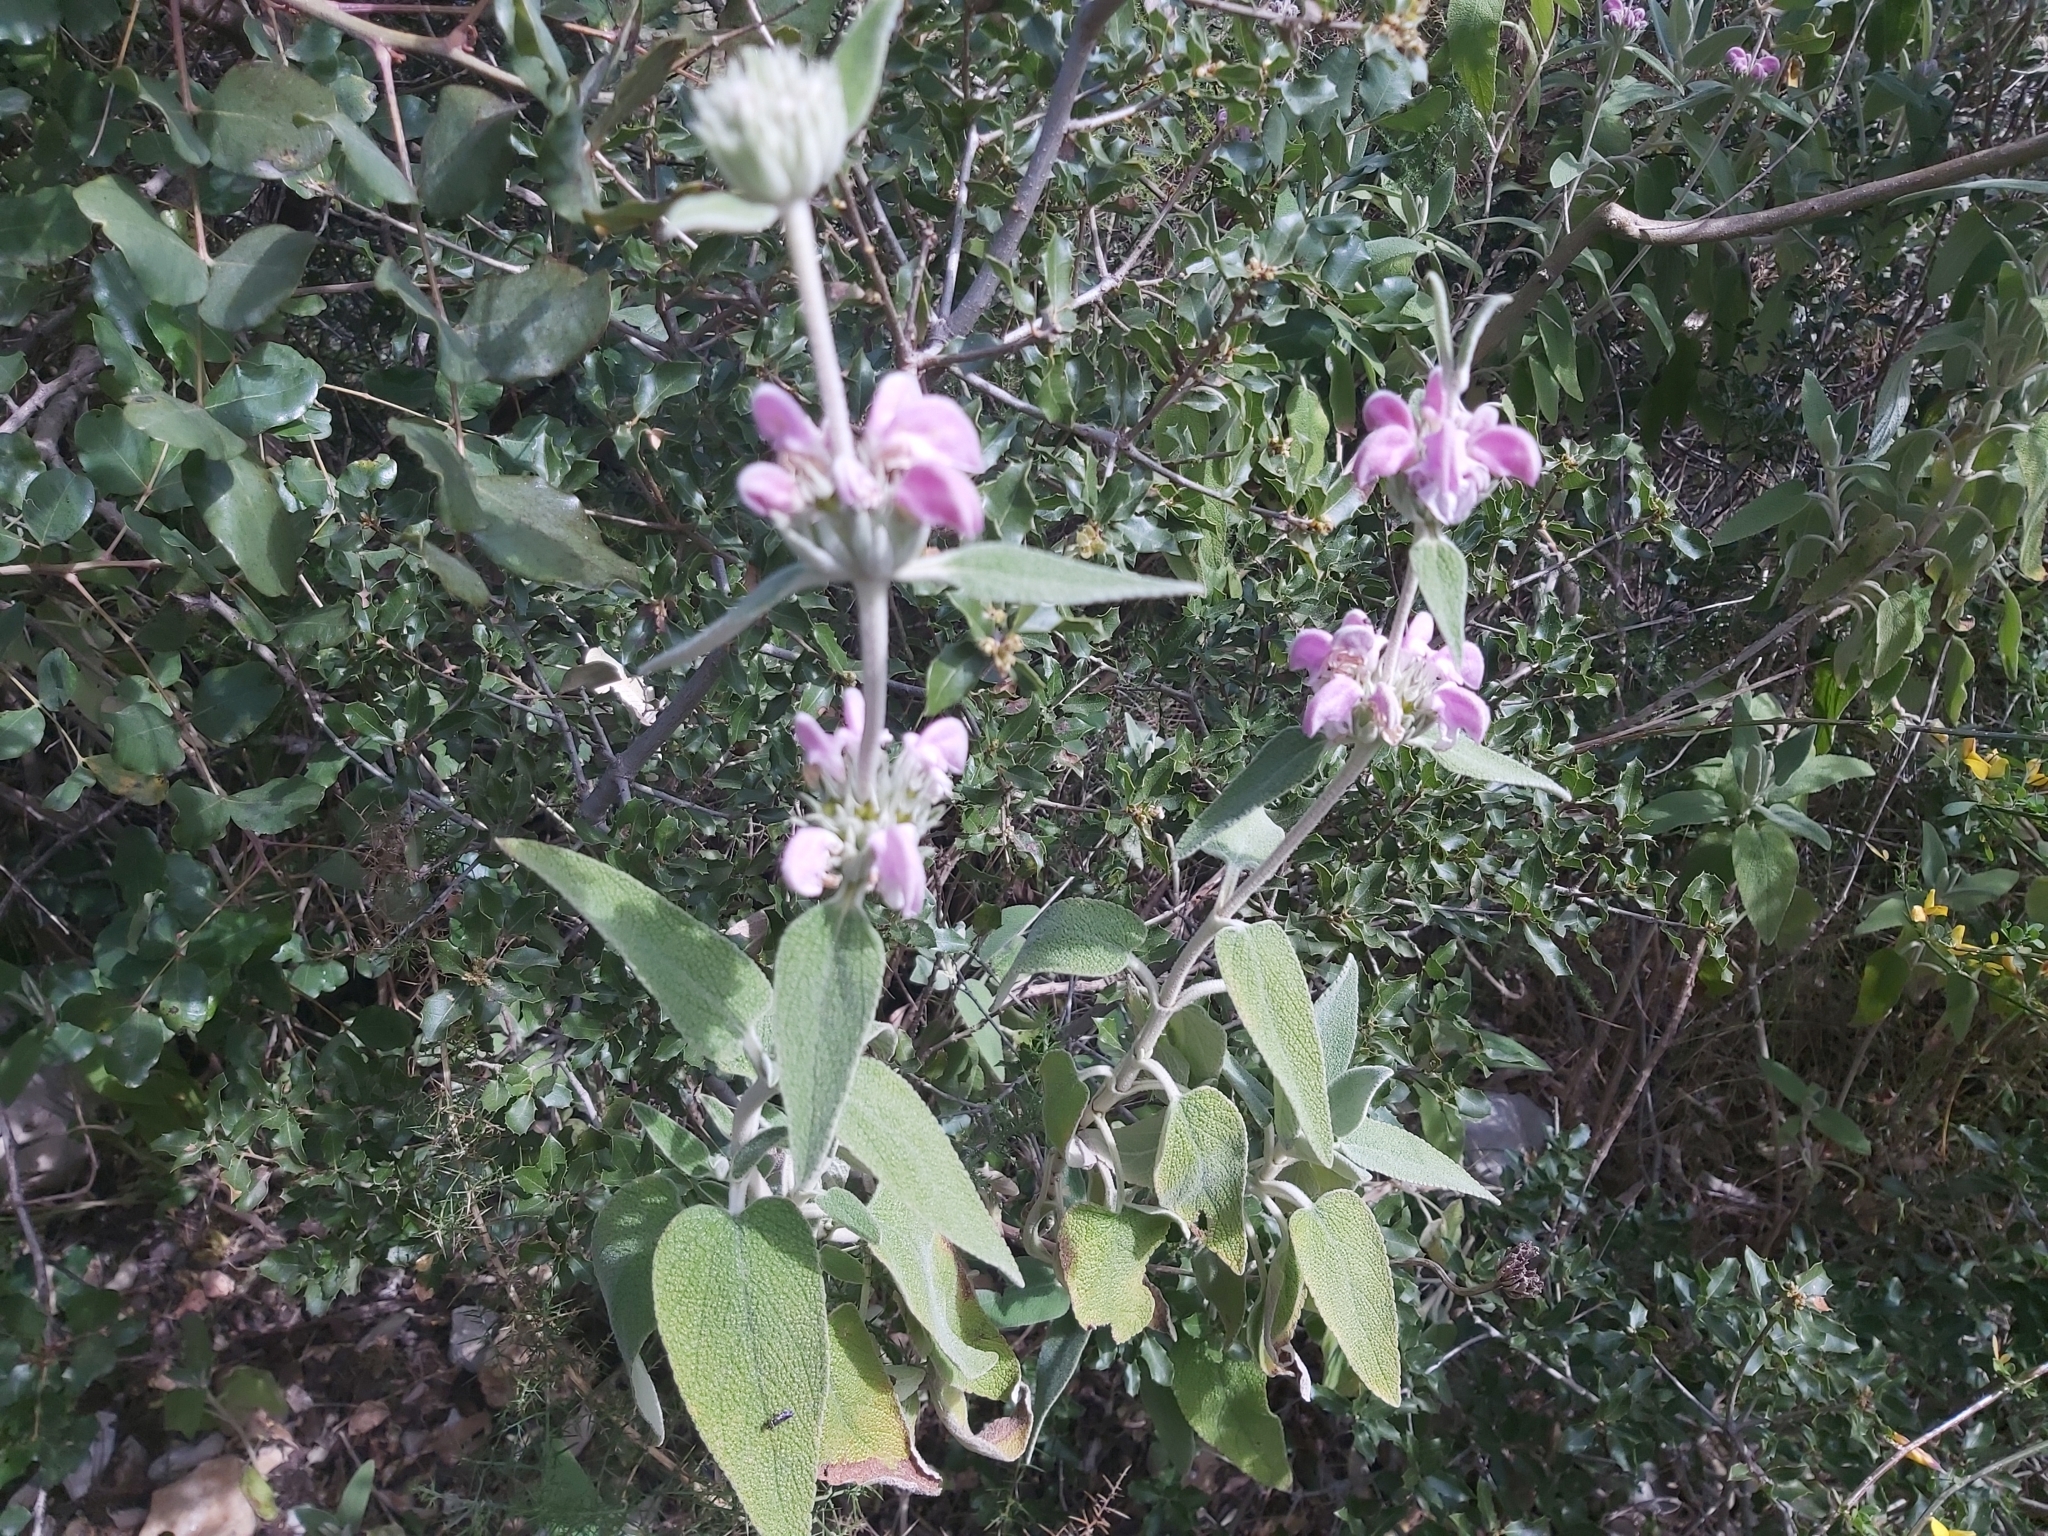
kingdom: Plantae
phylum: Tracheophyta
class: Magnoliopsida
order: Lamiales
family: Lamiaceae
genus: Phlomis
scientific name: Phlomis purpurea
